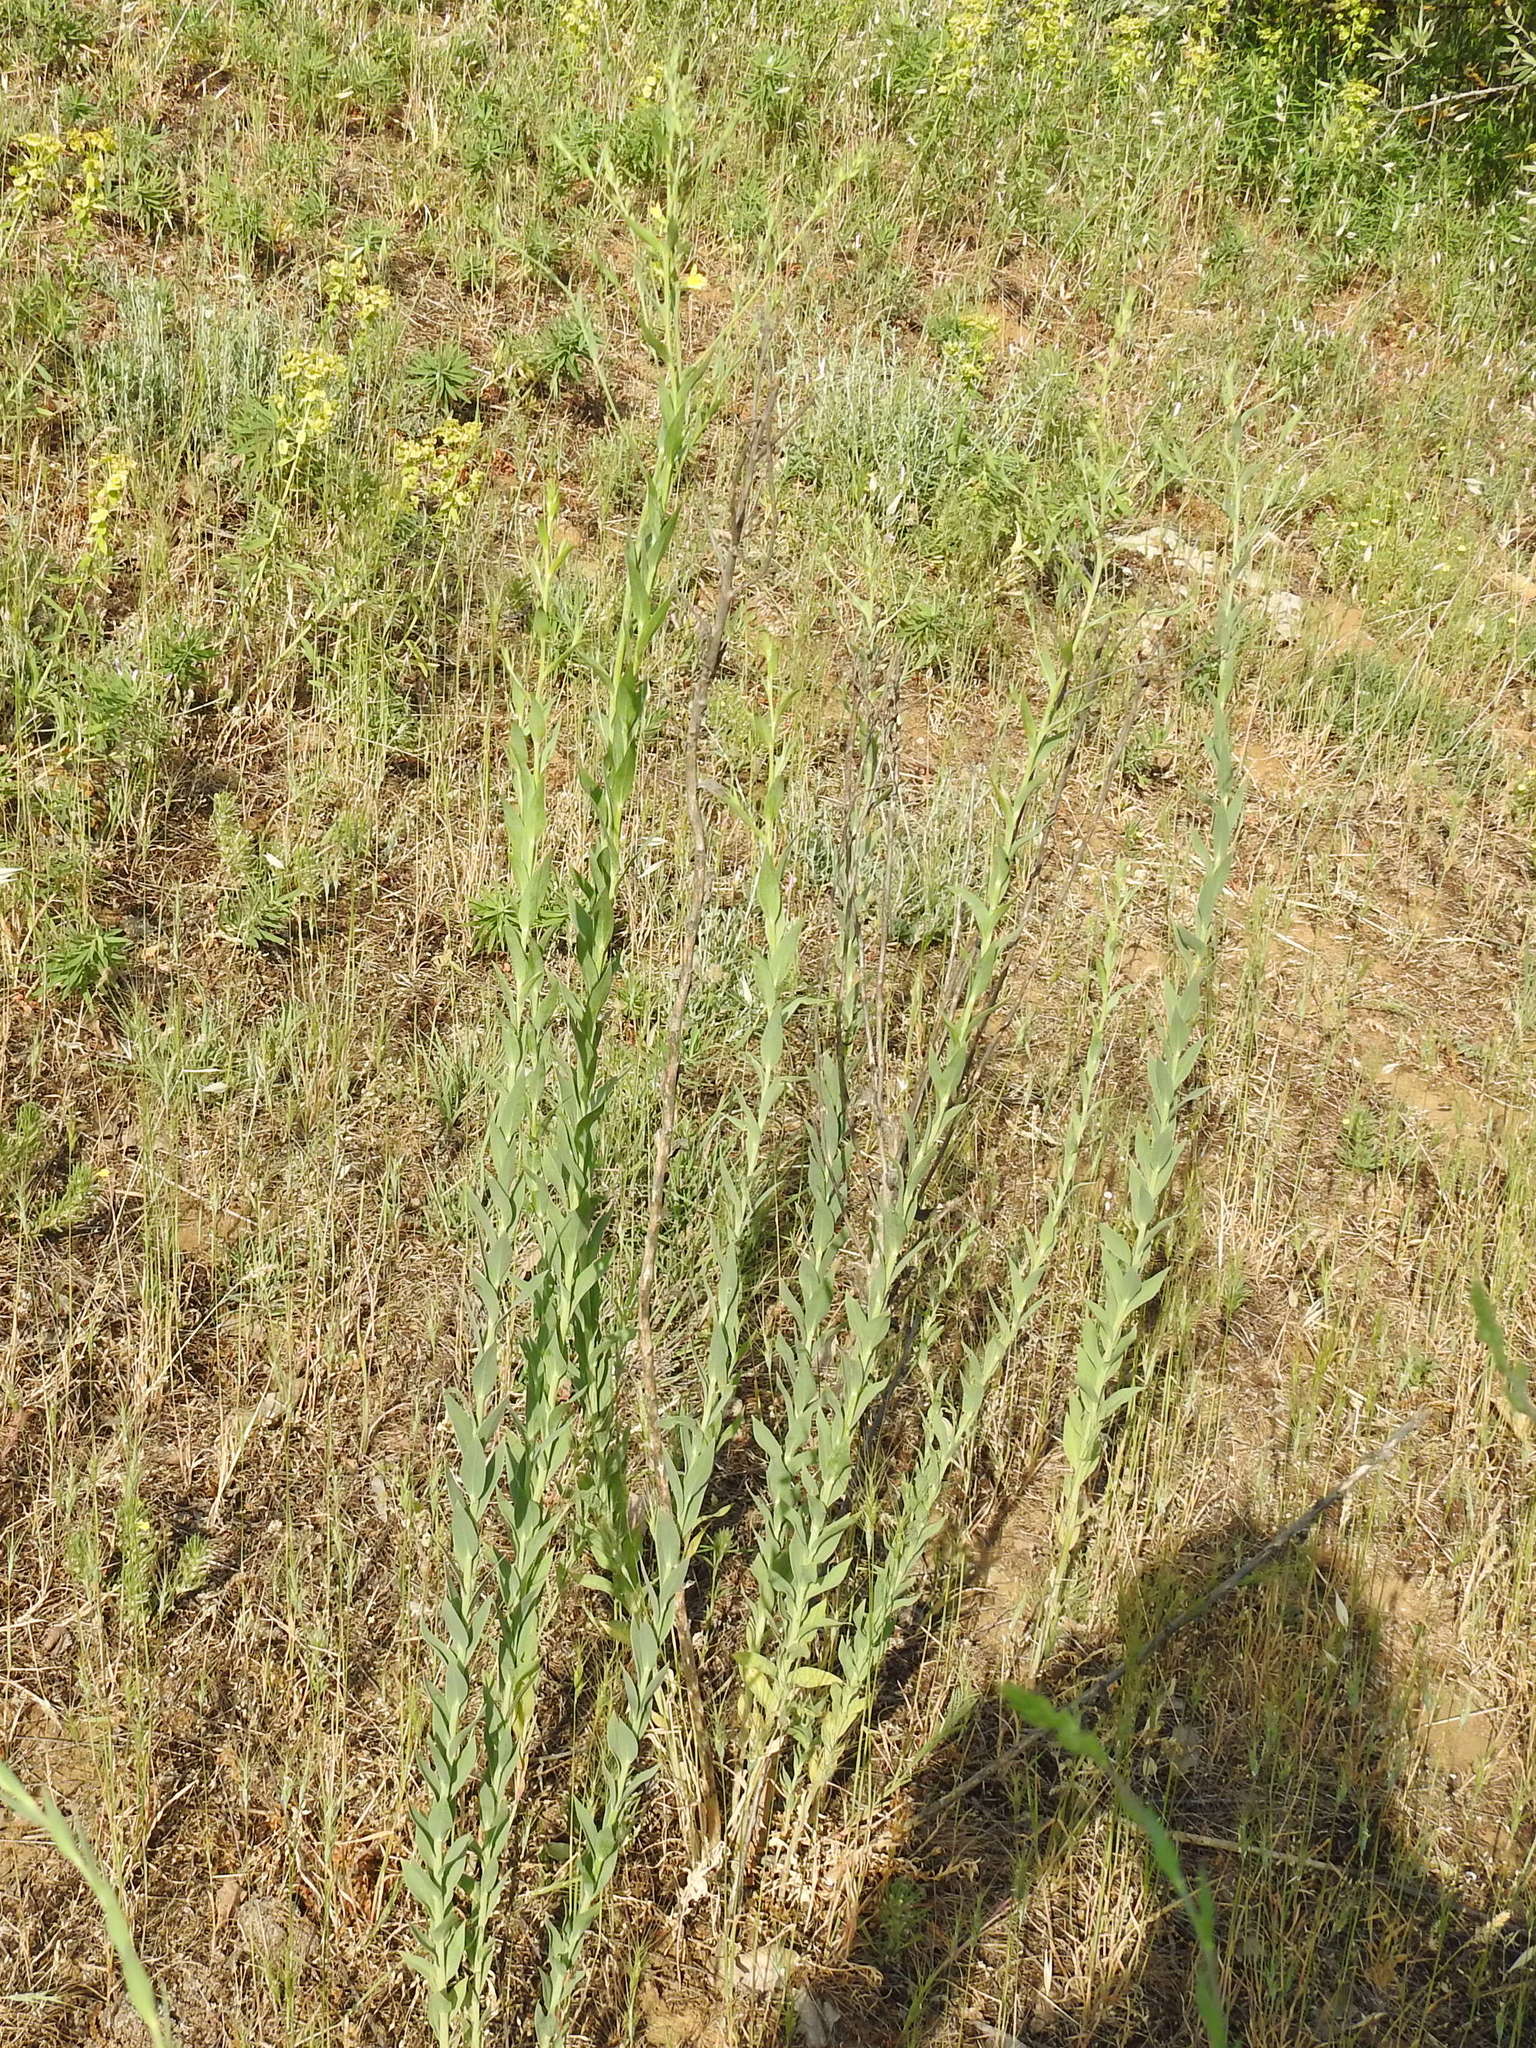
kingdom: Plantae
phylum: Tracheophyta
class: Magnoliopsida
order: Lamiales
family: Plantaginaceae
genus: Linaria
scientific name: Linaria genistifolia
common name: Broomleaf toadflax
